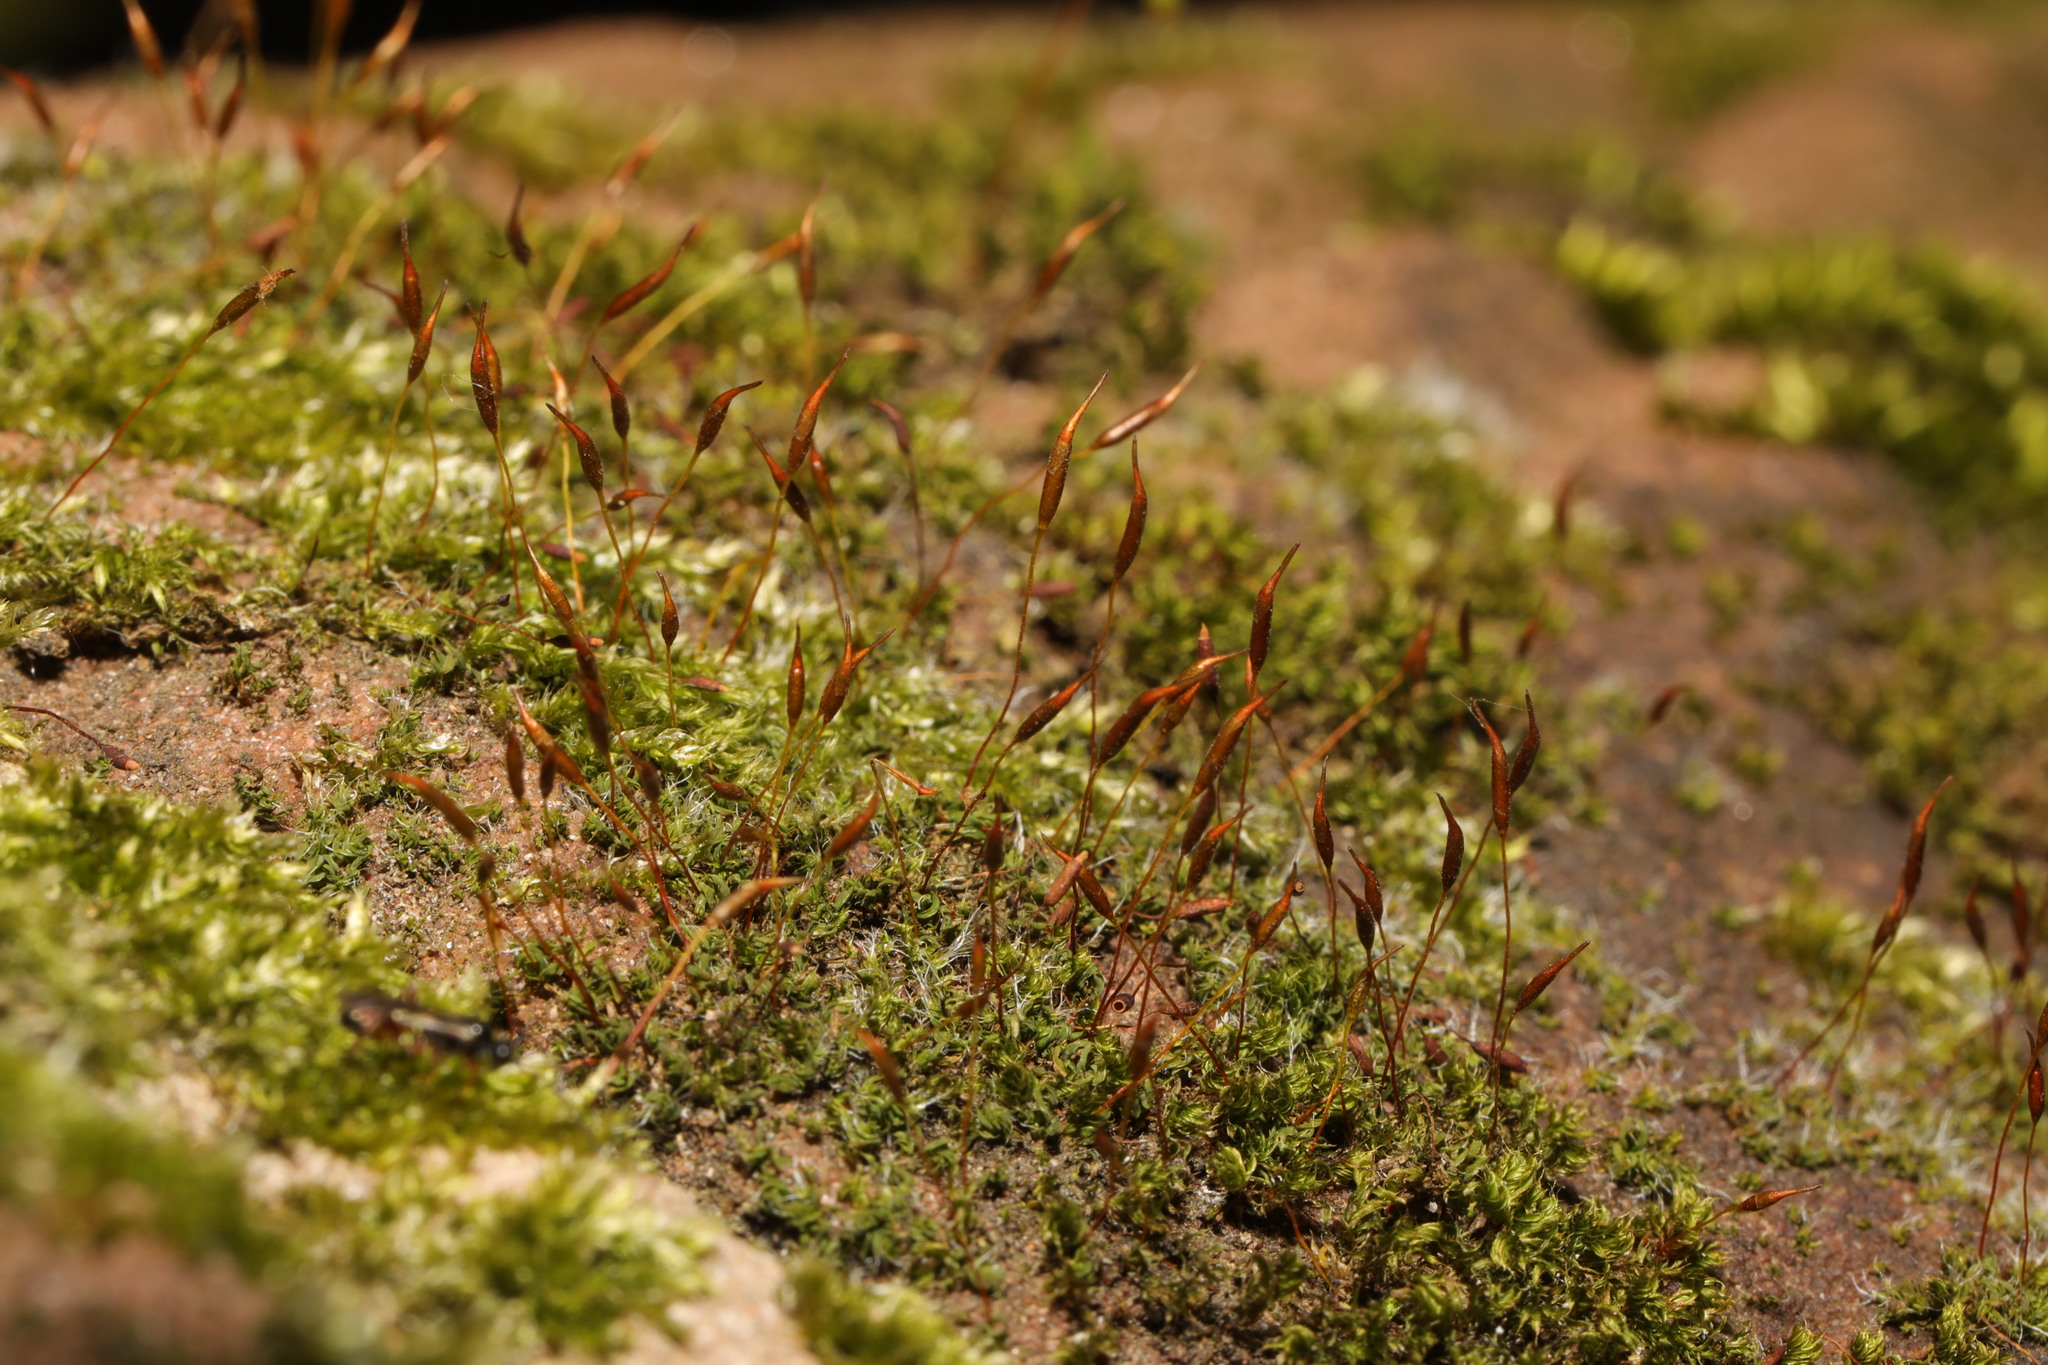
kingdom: Plantae
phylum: Bryophyta
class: Bryopsida
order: Pottiales
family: Pottiaceae
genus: Tortula
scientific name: Tortula muralis
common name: Wall screw-moss
